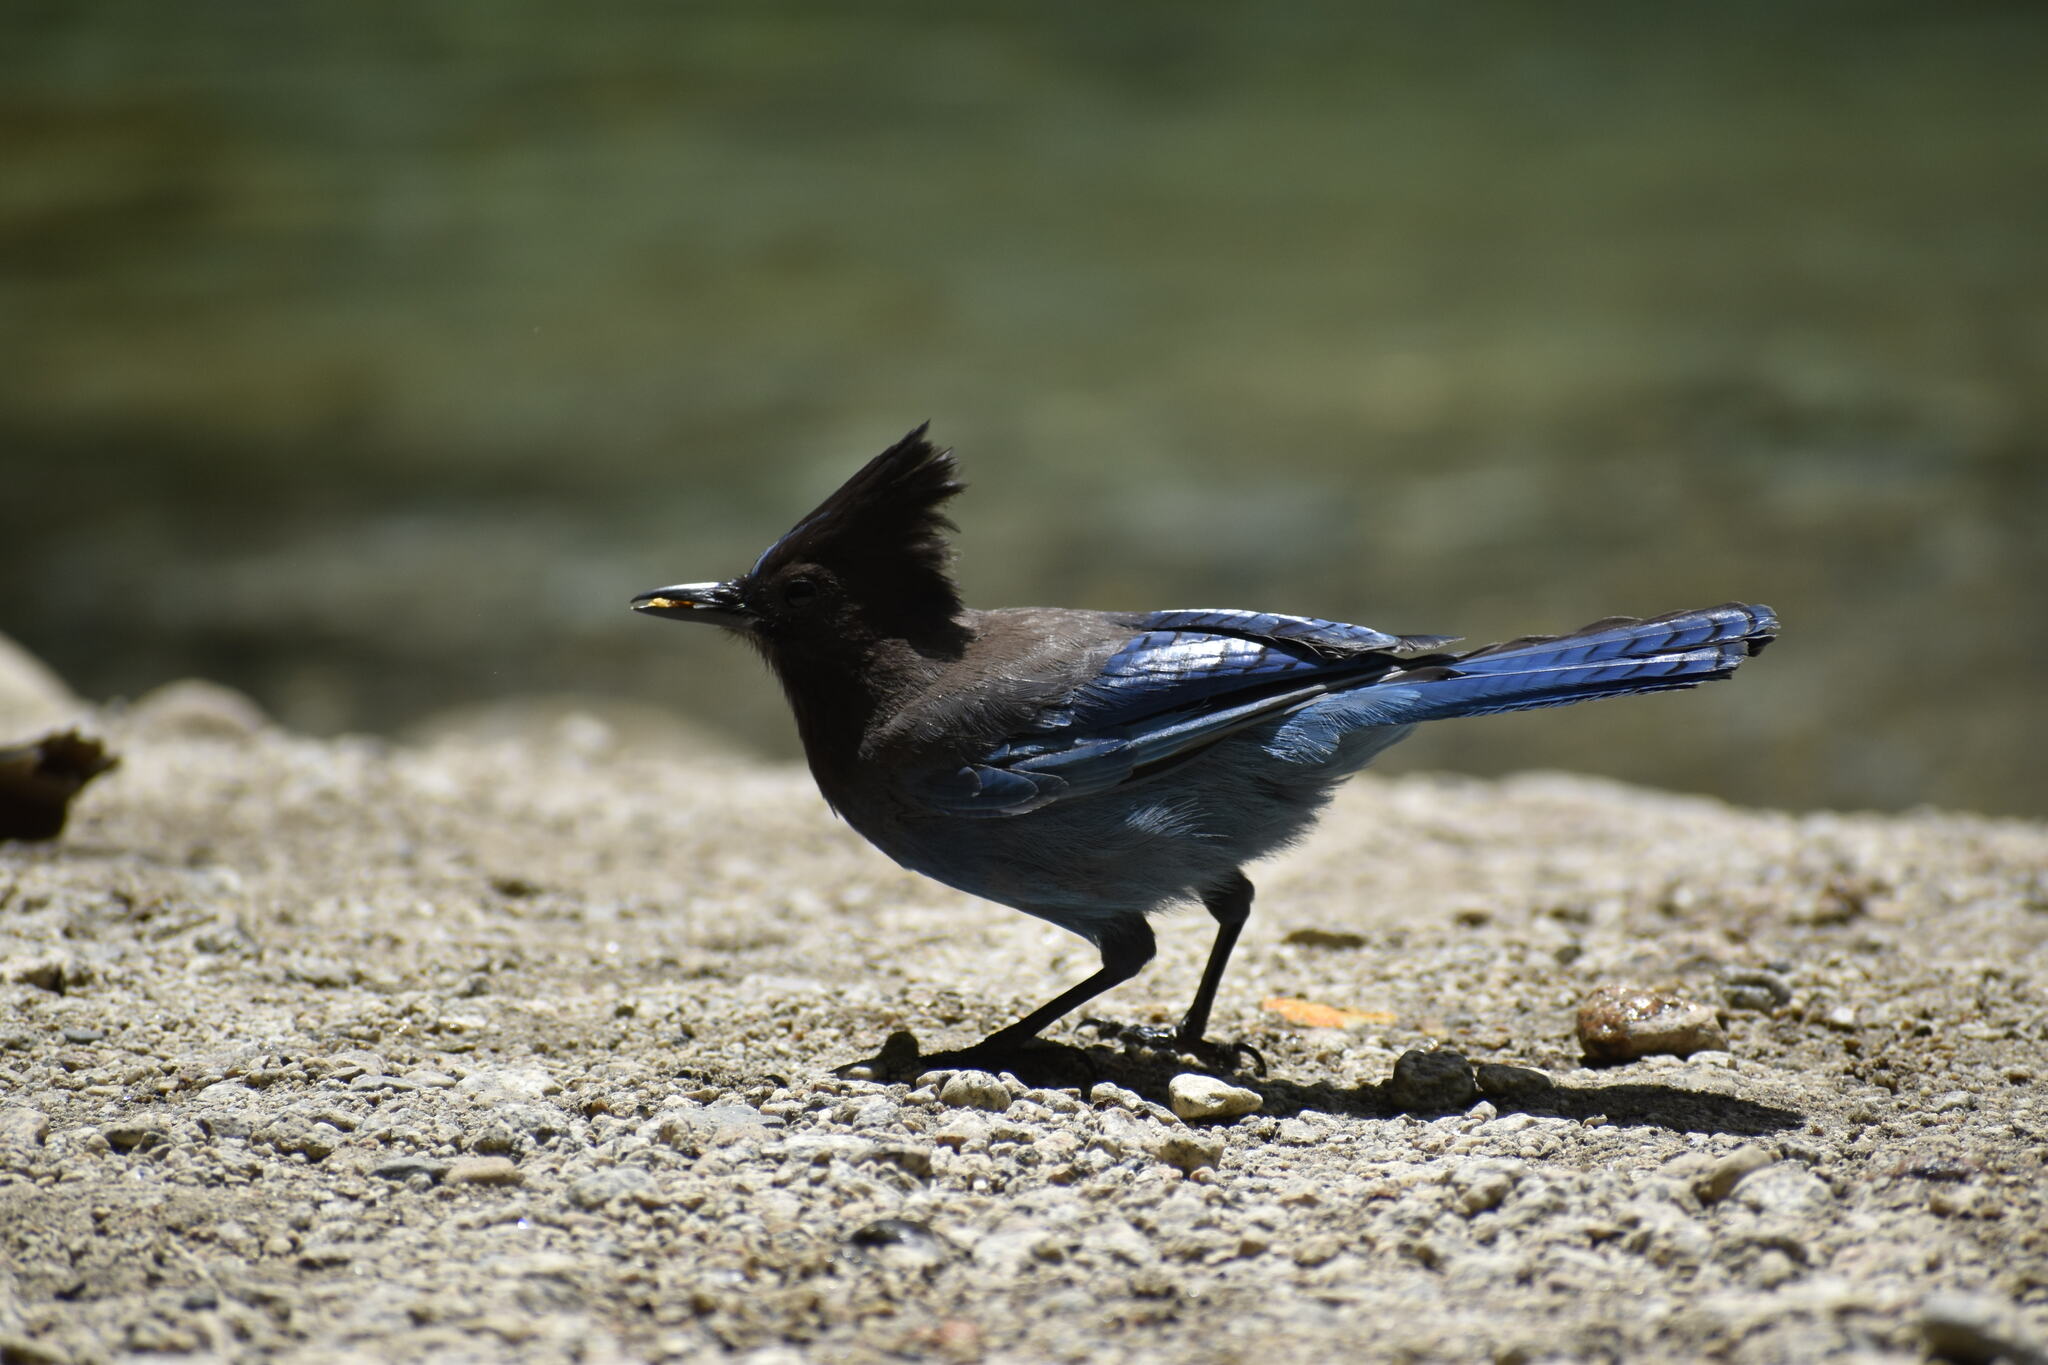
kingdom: Animalia
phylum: Chordata
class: Aves
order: Passeriformes
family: Corvidae
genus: Cyanocitta
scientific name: Cyanocitta stelleri
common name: Steller's jay
